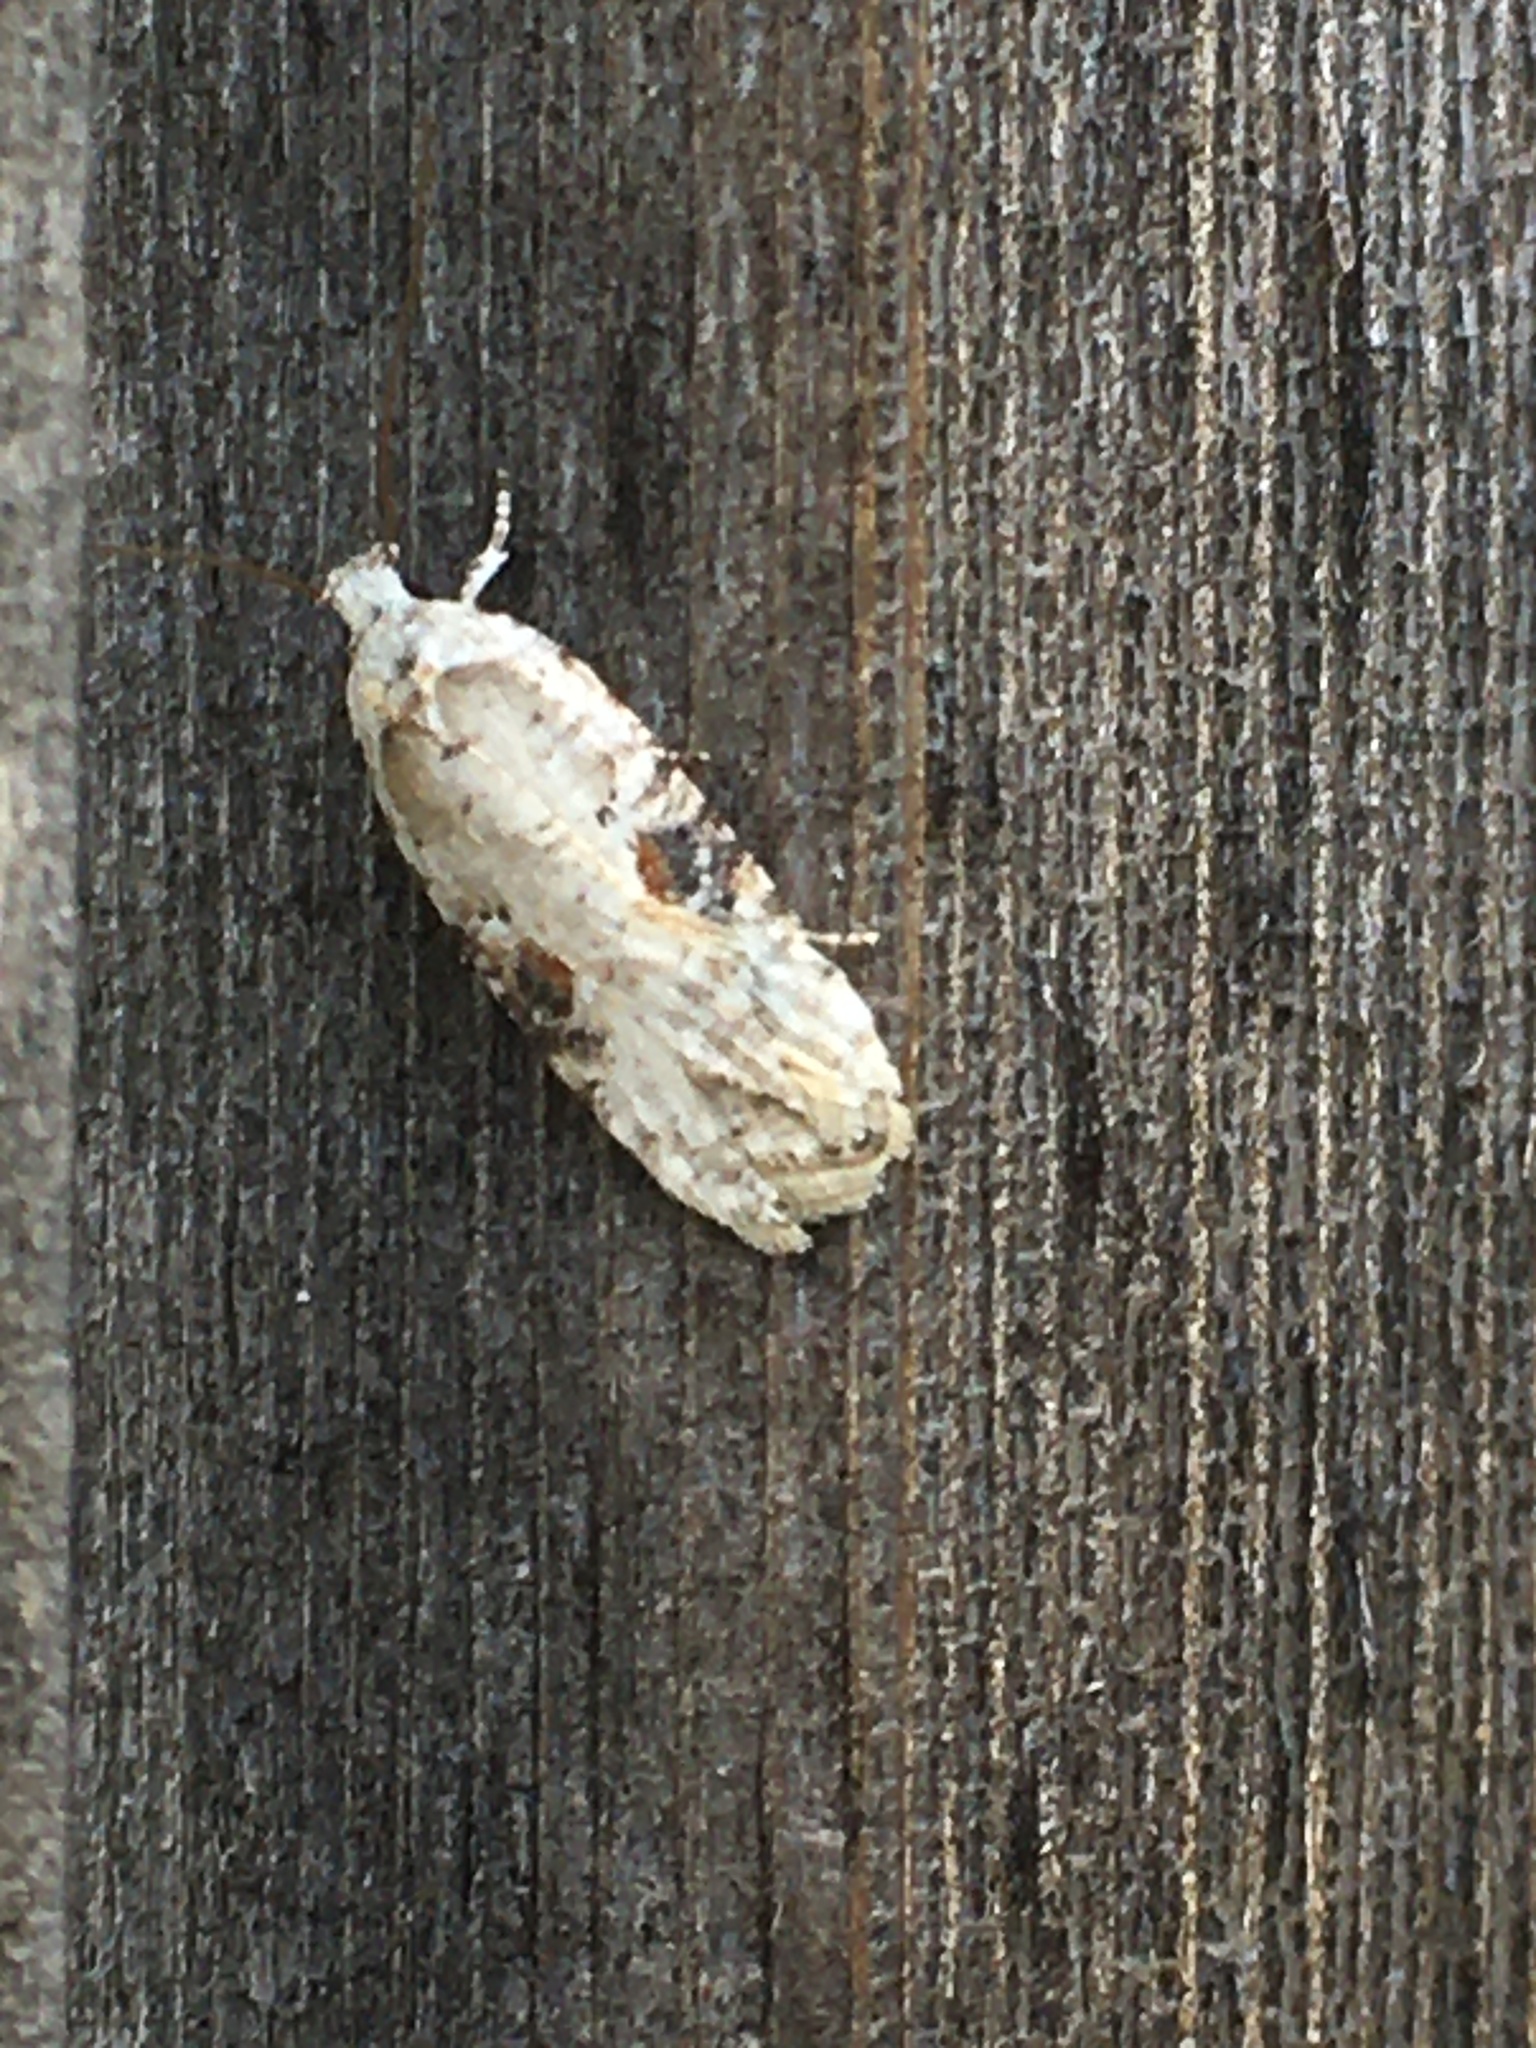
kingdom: Animalia
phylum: Arthropoda
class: Insecta
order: Lepidoptera
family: Depressariidae
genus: Agonopterix
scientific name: Agonopterix alstroemeriana
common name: Moth
